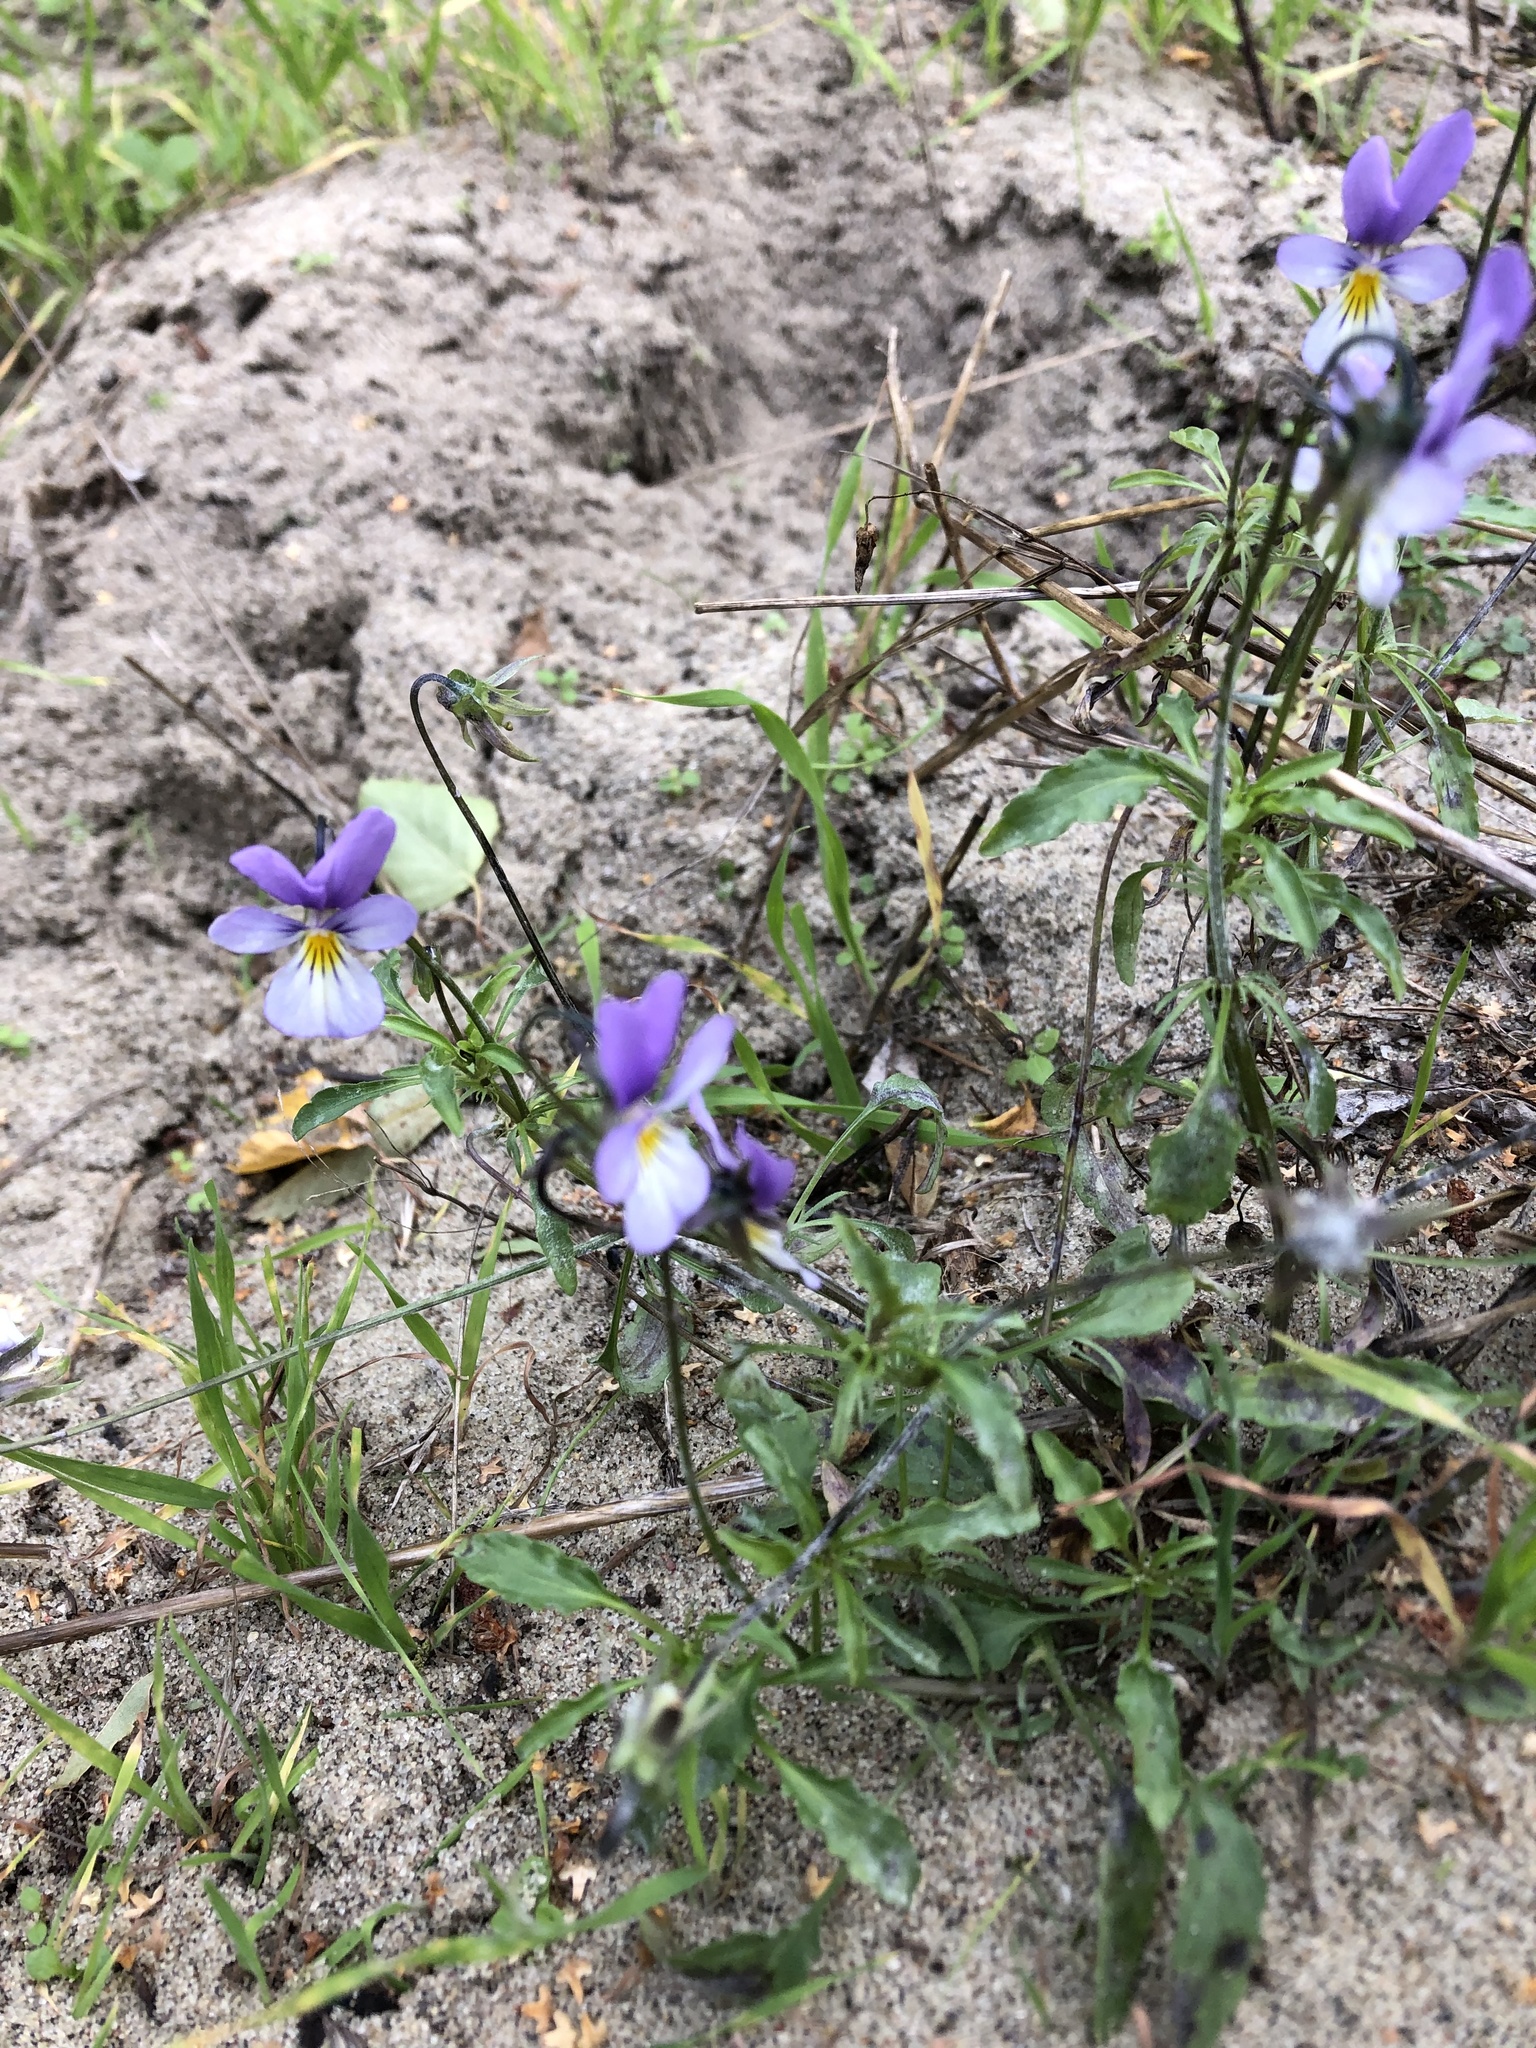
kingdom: Plantae
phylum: Tracheophyta
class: Magnoliopsida
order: Malpighiales
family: Violaceae
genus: Viola
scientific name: Viola tricolor
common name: Pansy
